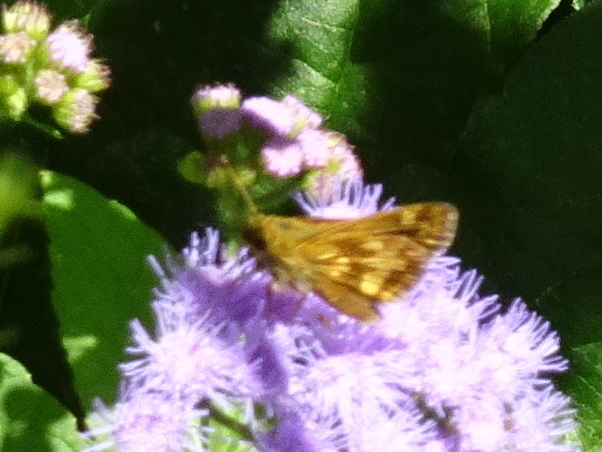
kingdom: Animalia
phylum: Arthropoda
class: Insecta
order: Lepidoptera
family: Hesperiidae
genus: Polites
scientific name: Polites coras
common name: Peck's skipper
